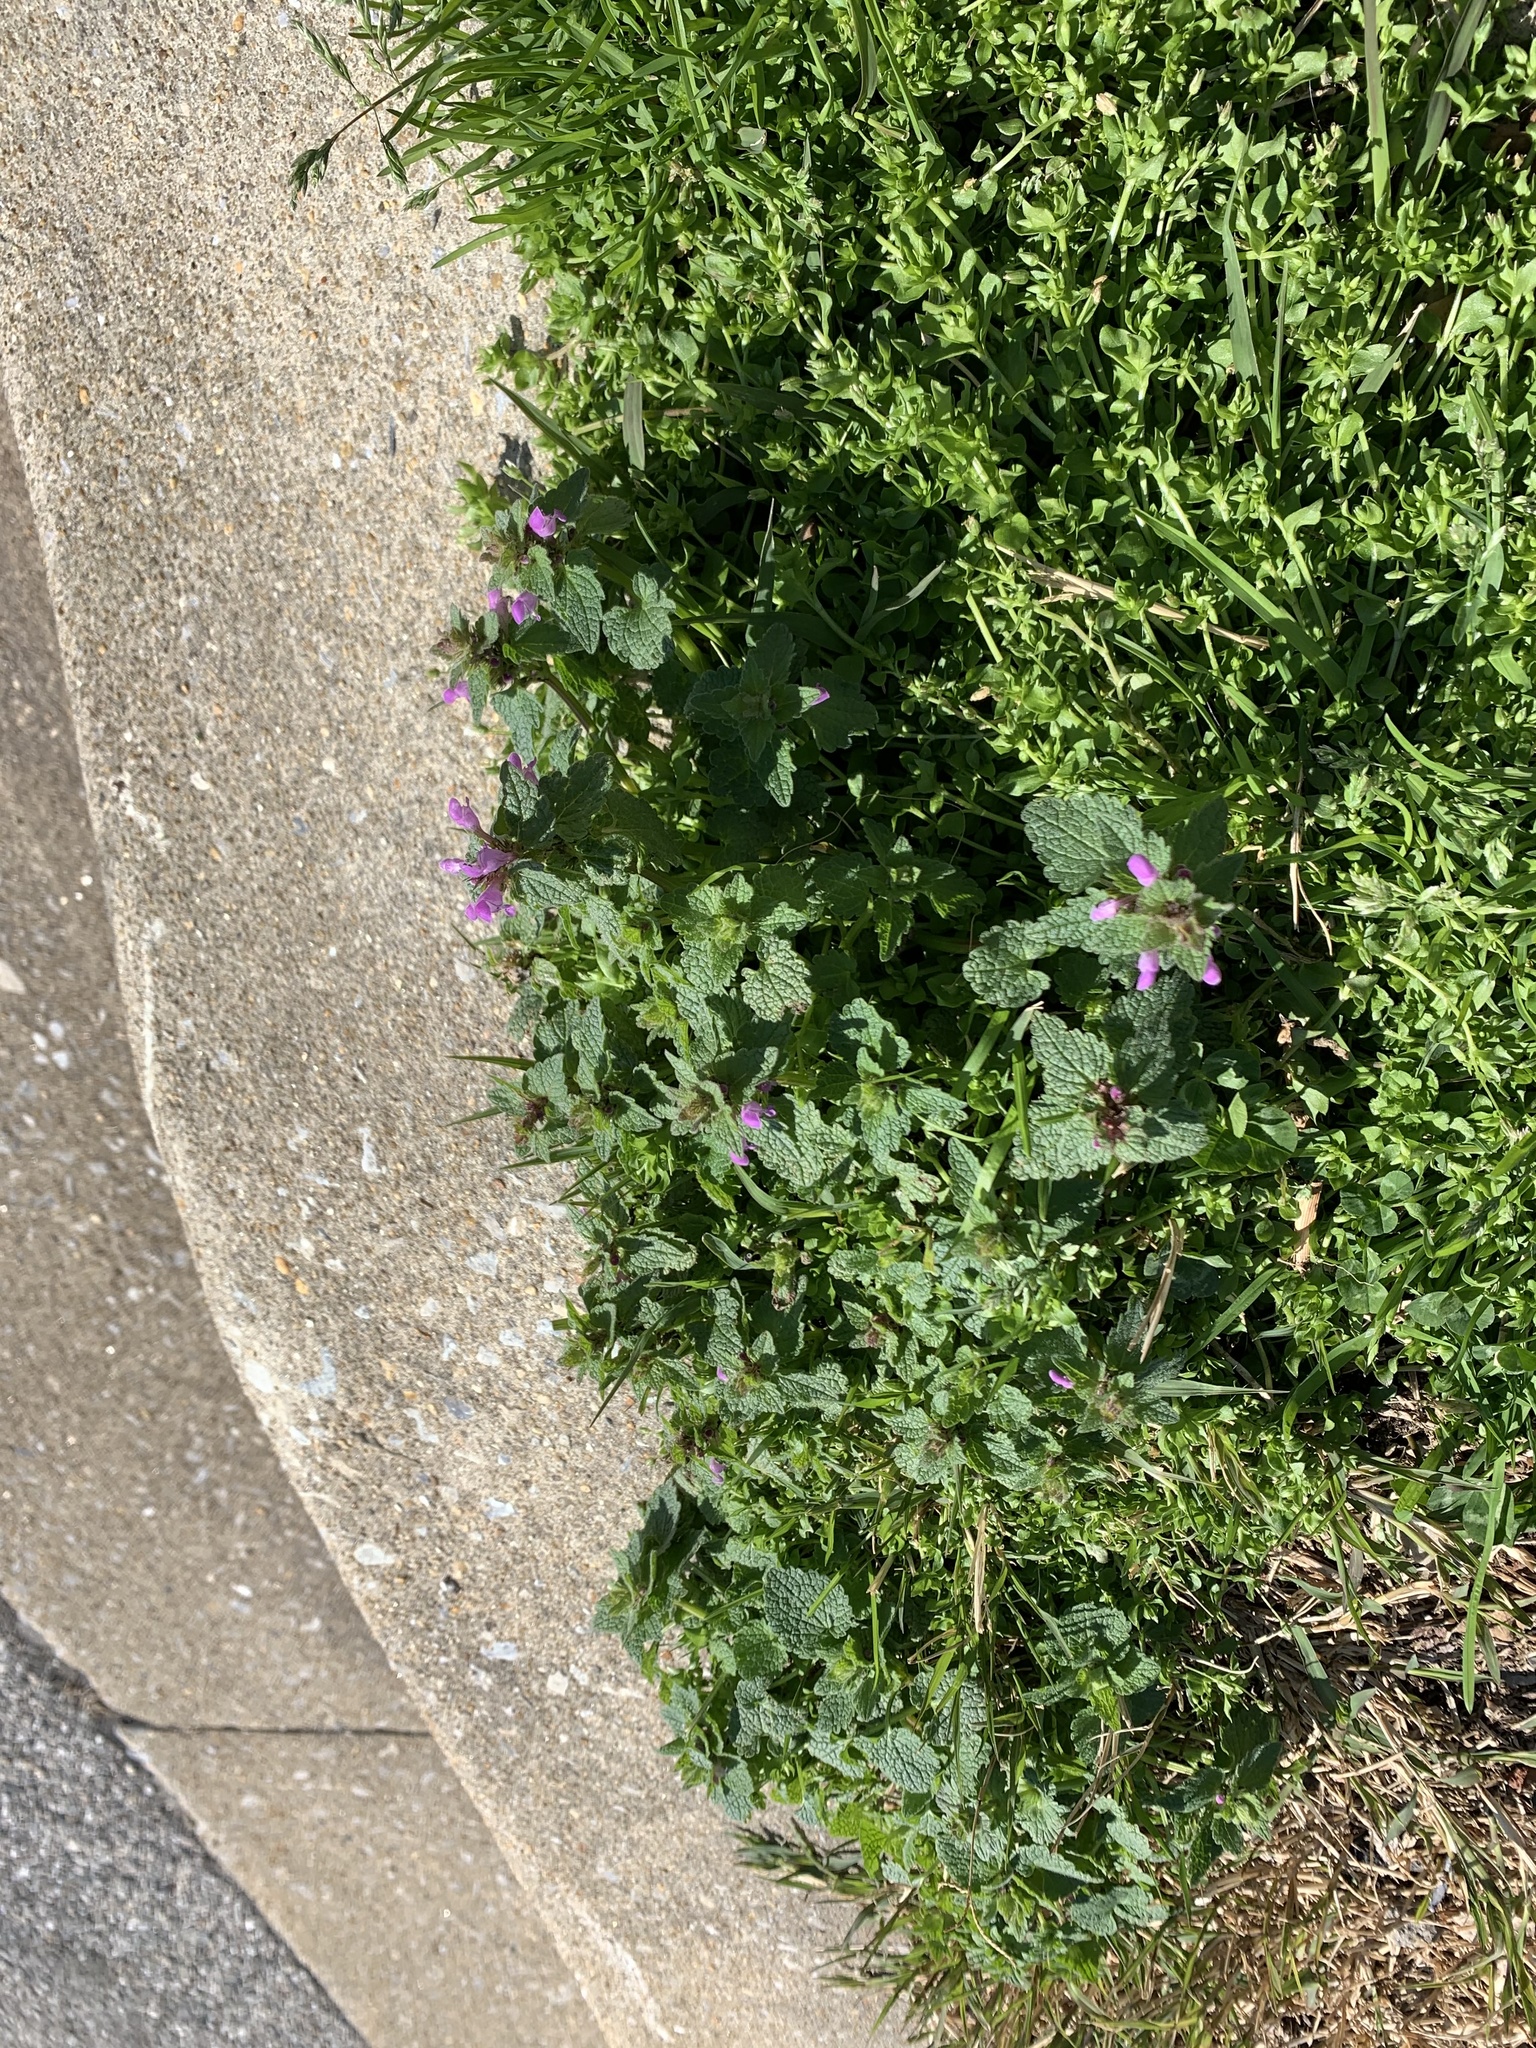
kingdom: Plantae
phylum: Tracheophyta
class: Magnoliopsida
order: Lamiales
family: Lamiaceae
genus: Lamium
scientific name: Lamium purpureum
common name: Red dead-nettle
